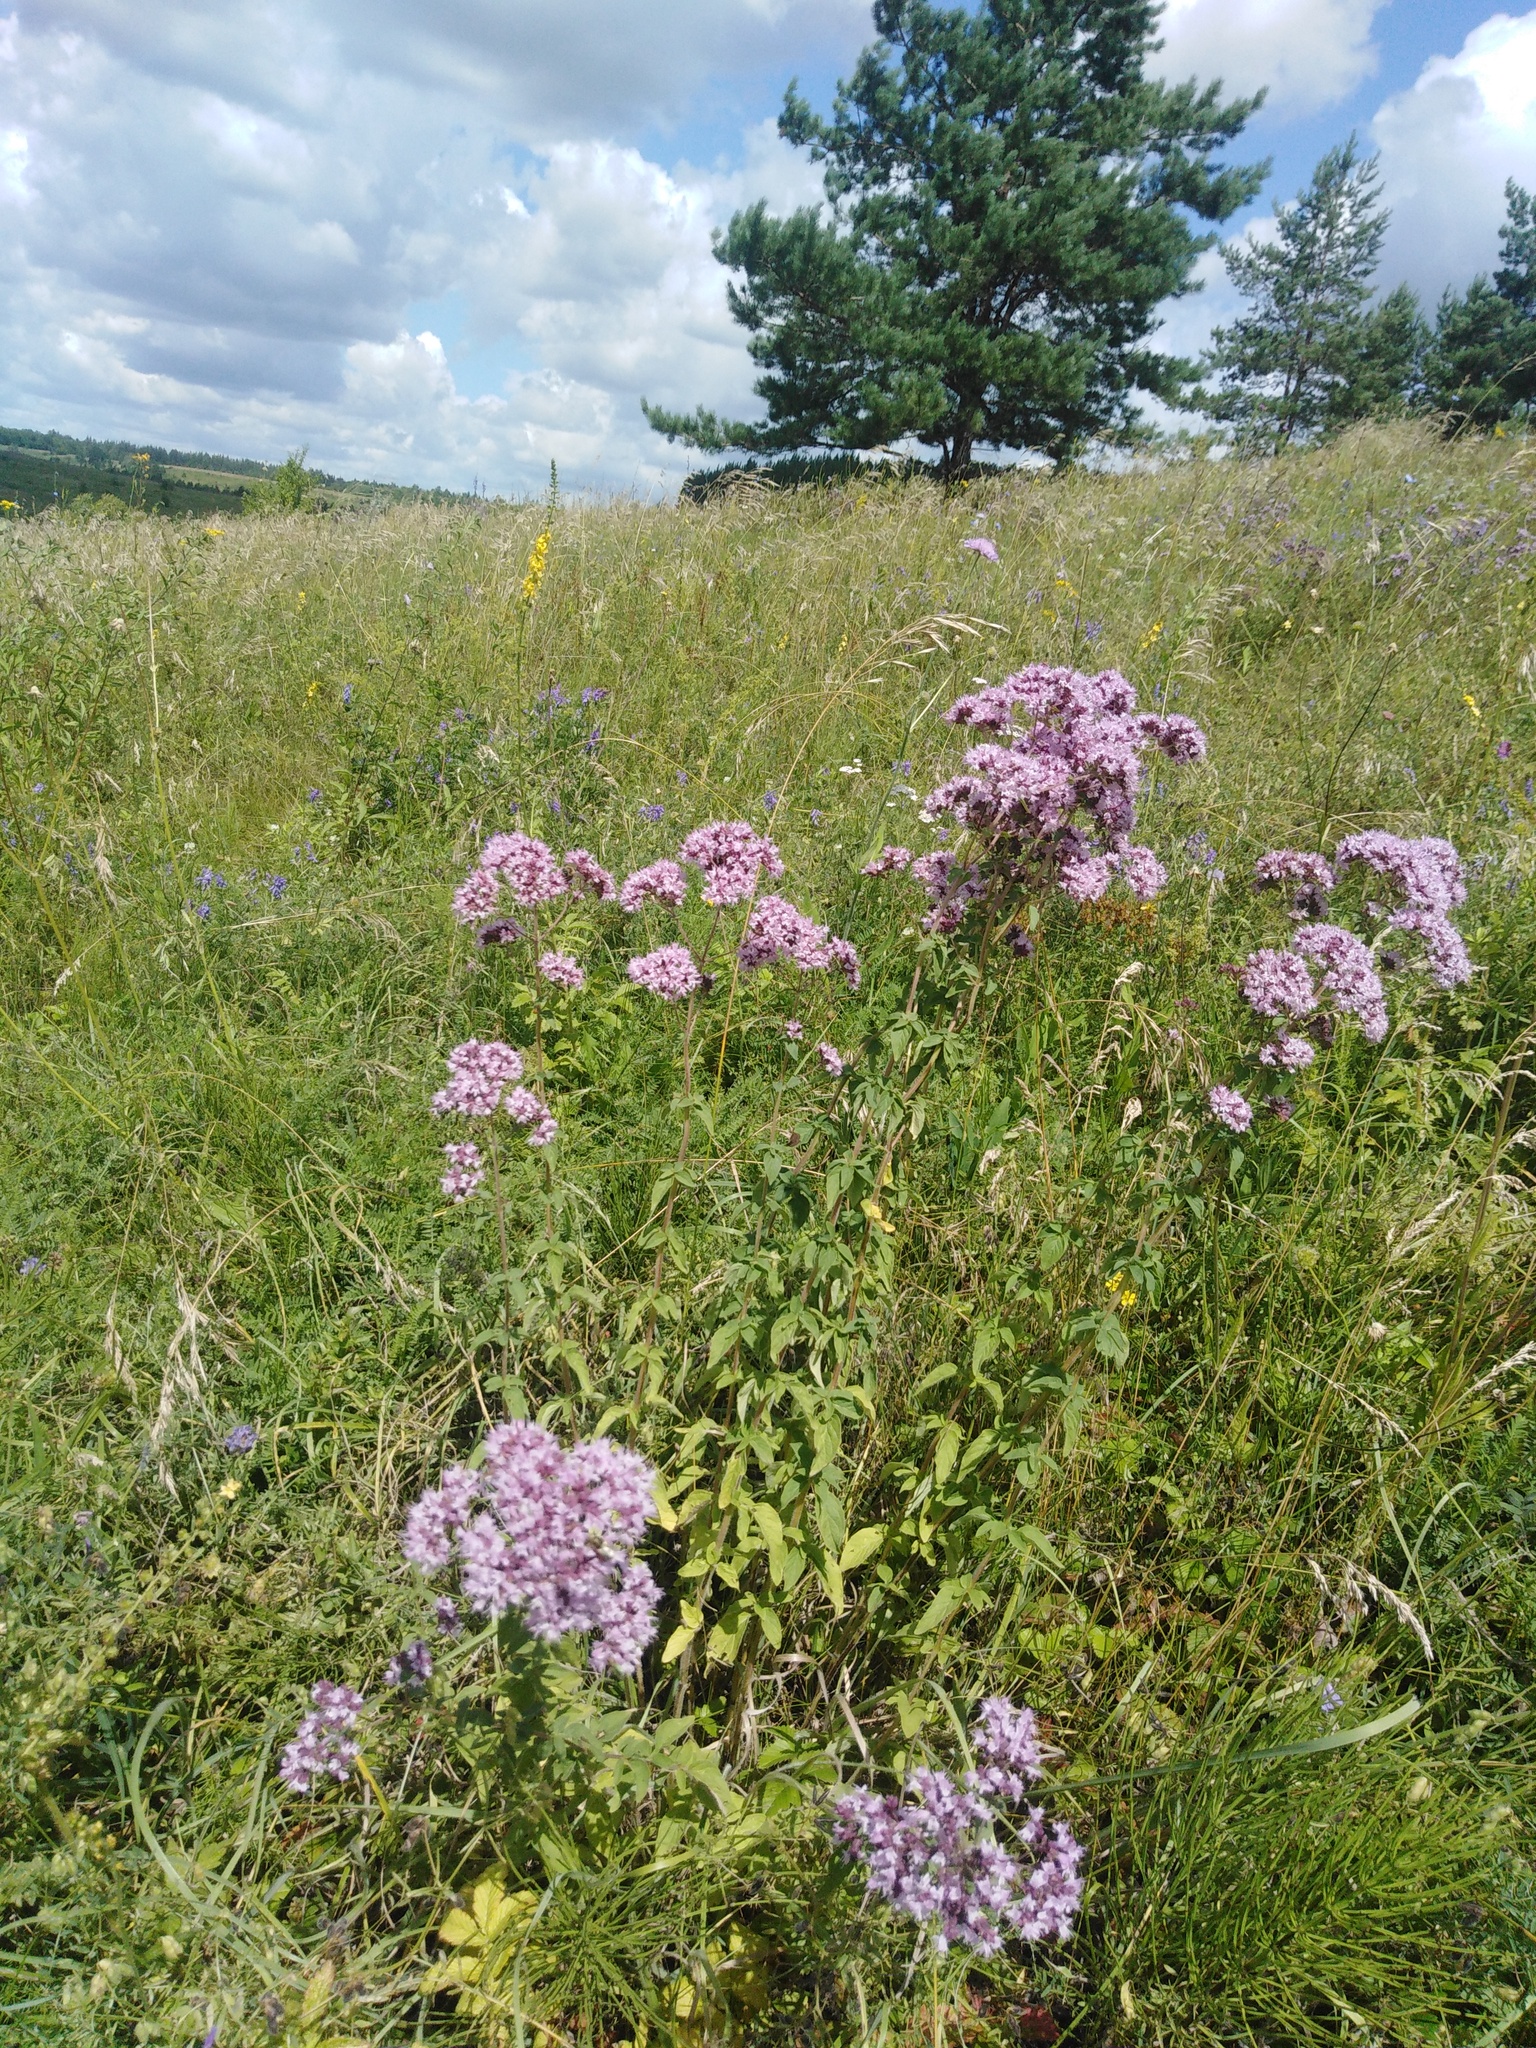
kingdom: Plantae
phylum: Tracheophyta
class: Magnoliopsida
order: Lamiales
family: Lamiaceae
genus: Origanum
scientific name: Origanum vulgare
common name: Wild marjoram
